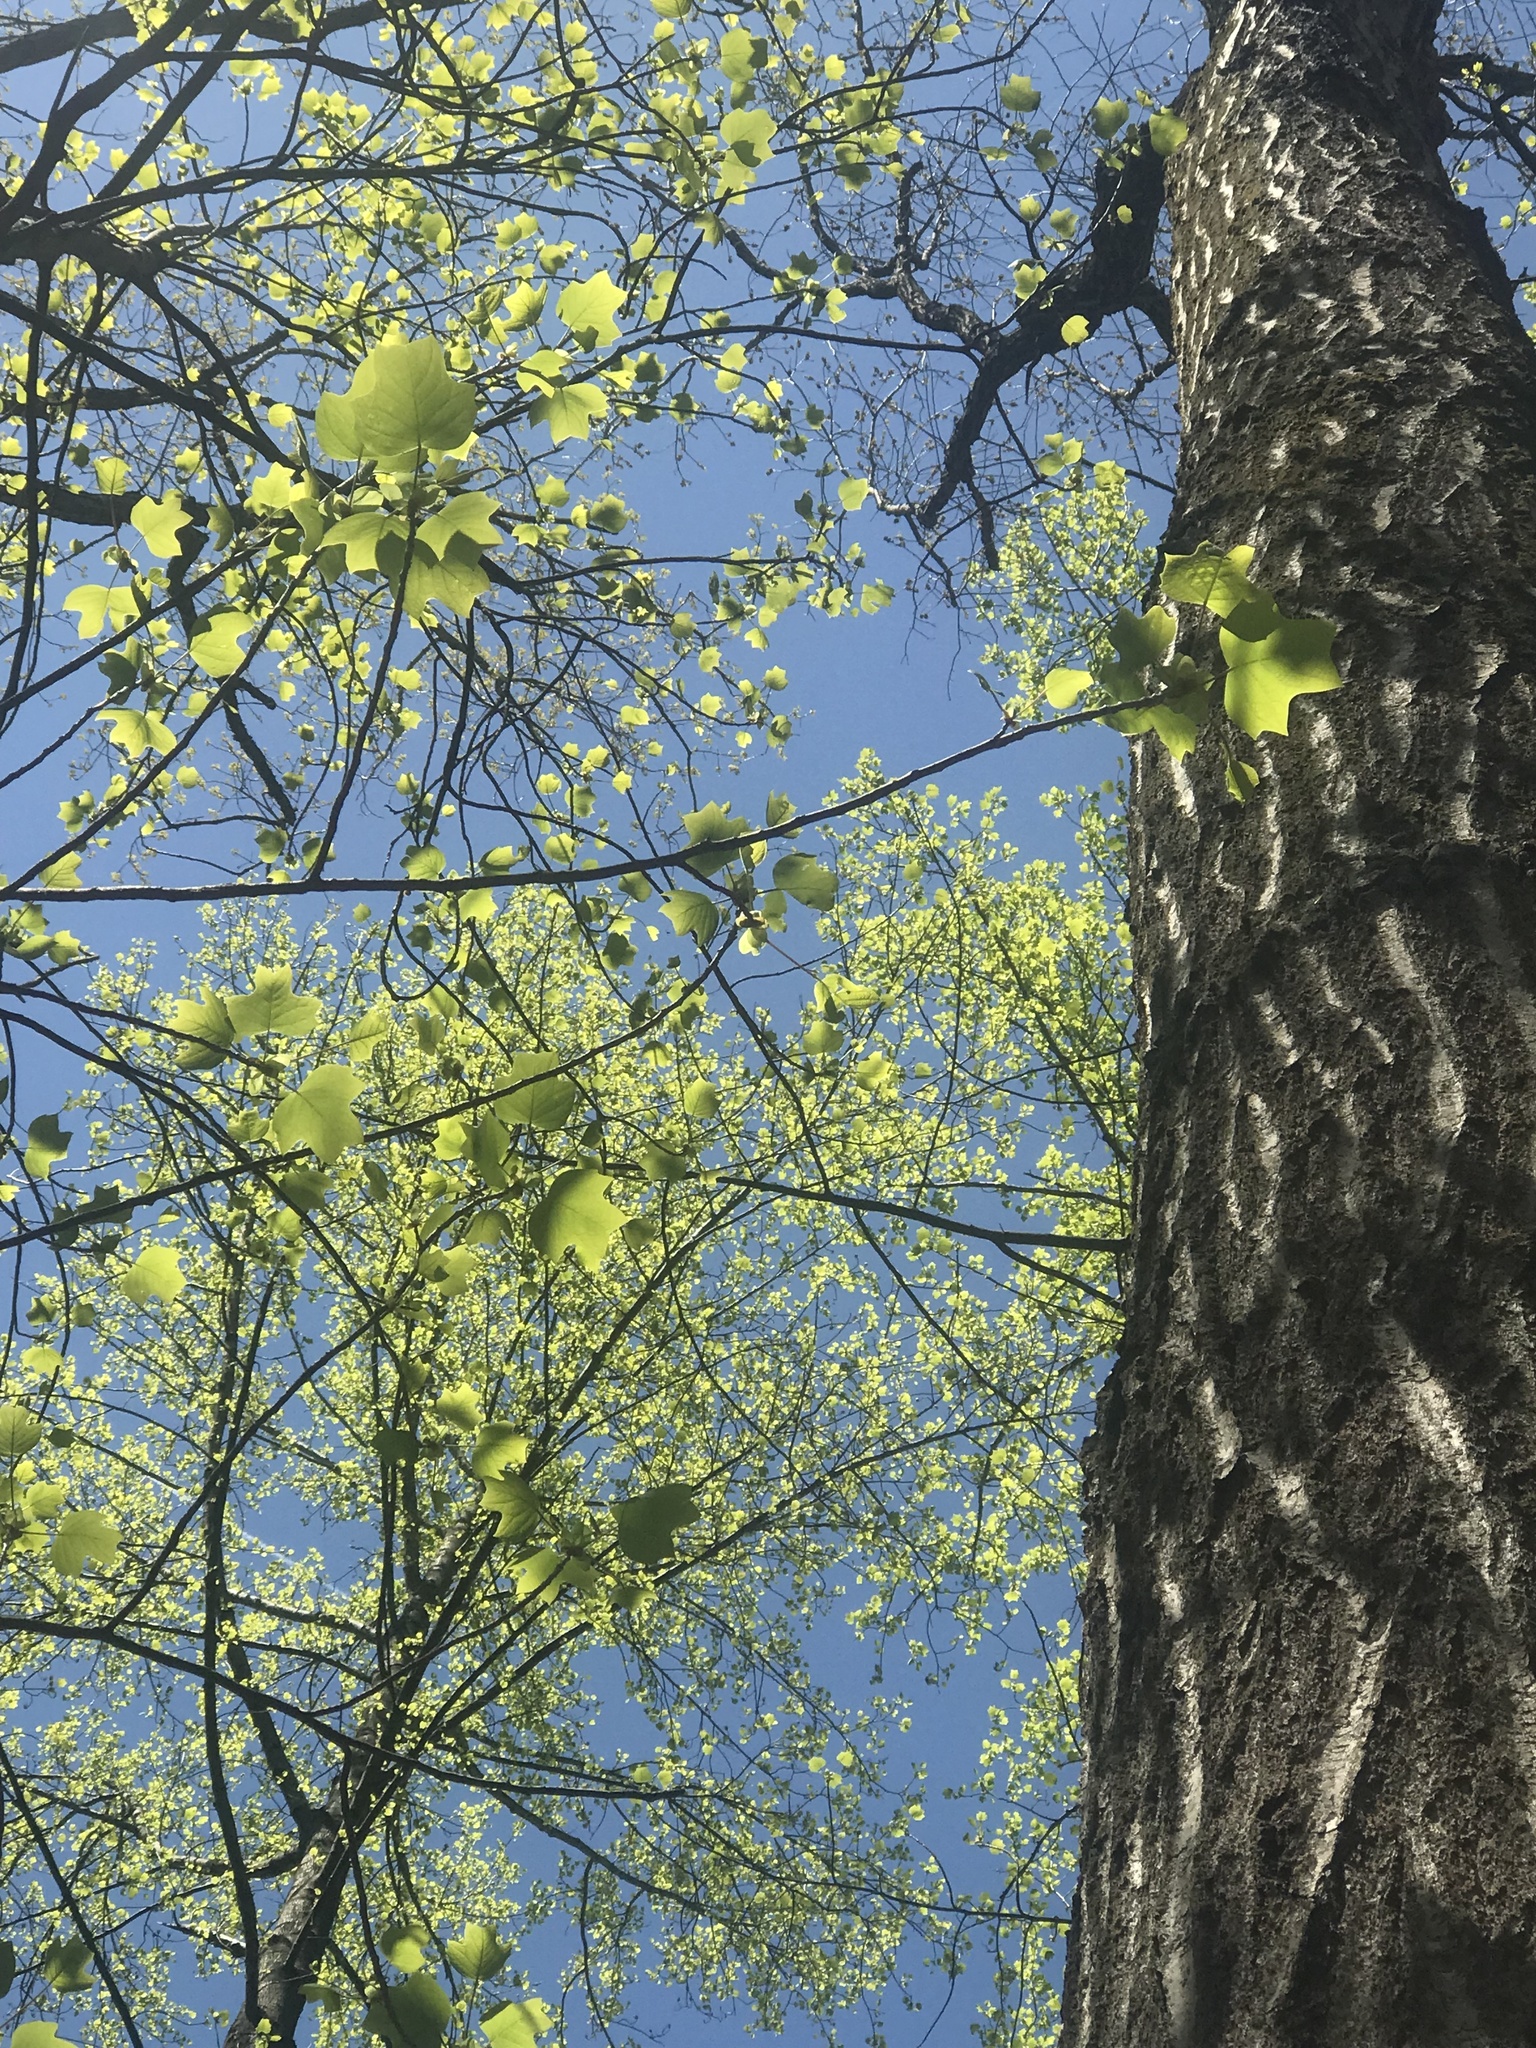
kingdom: Plantae
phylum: Tracheophyta
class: Magnoliopsida
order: Magnoliales
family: Magnoliaceae
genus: Liriodendron
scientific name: Liriodendron tulipifera
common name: Tulip tree
